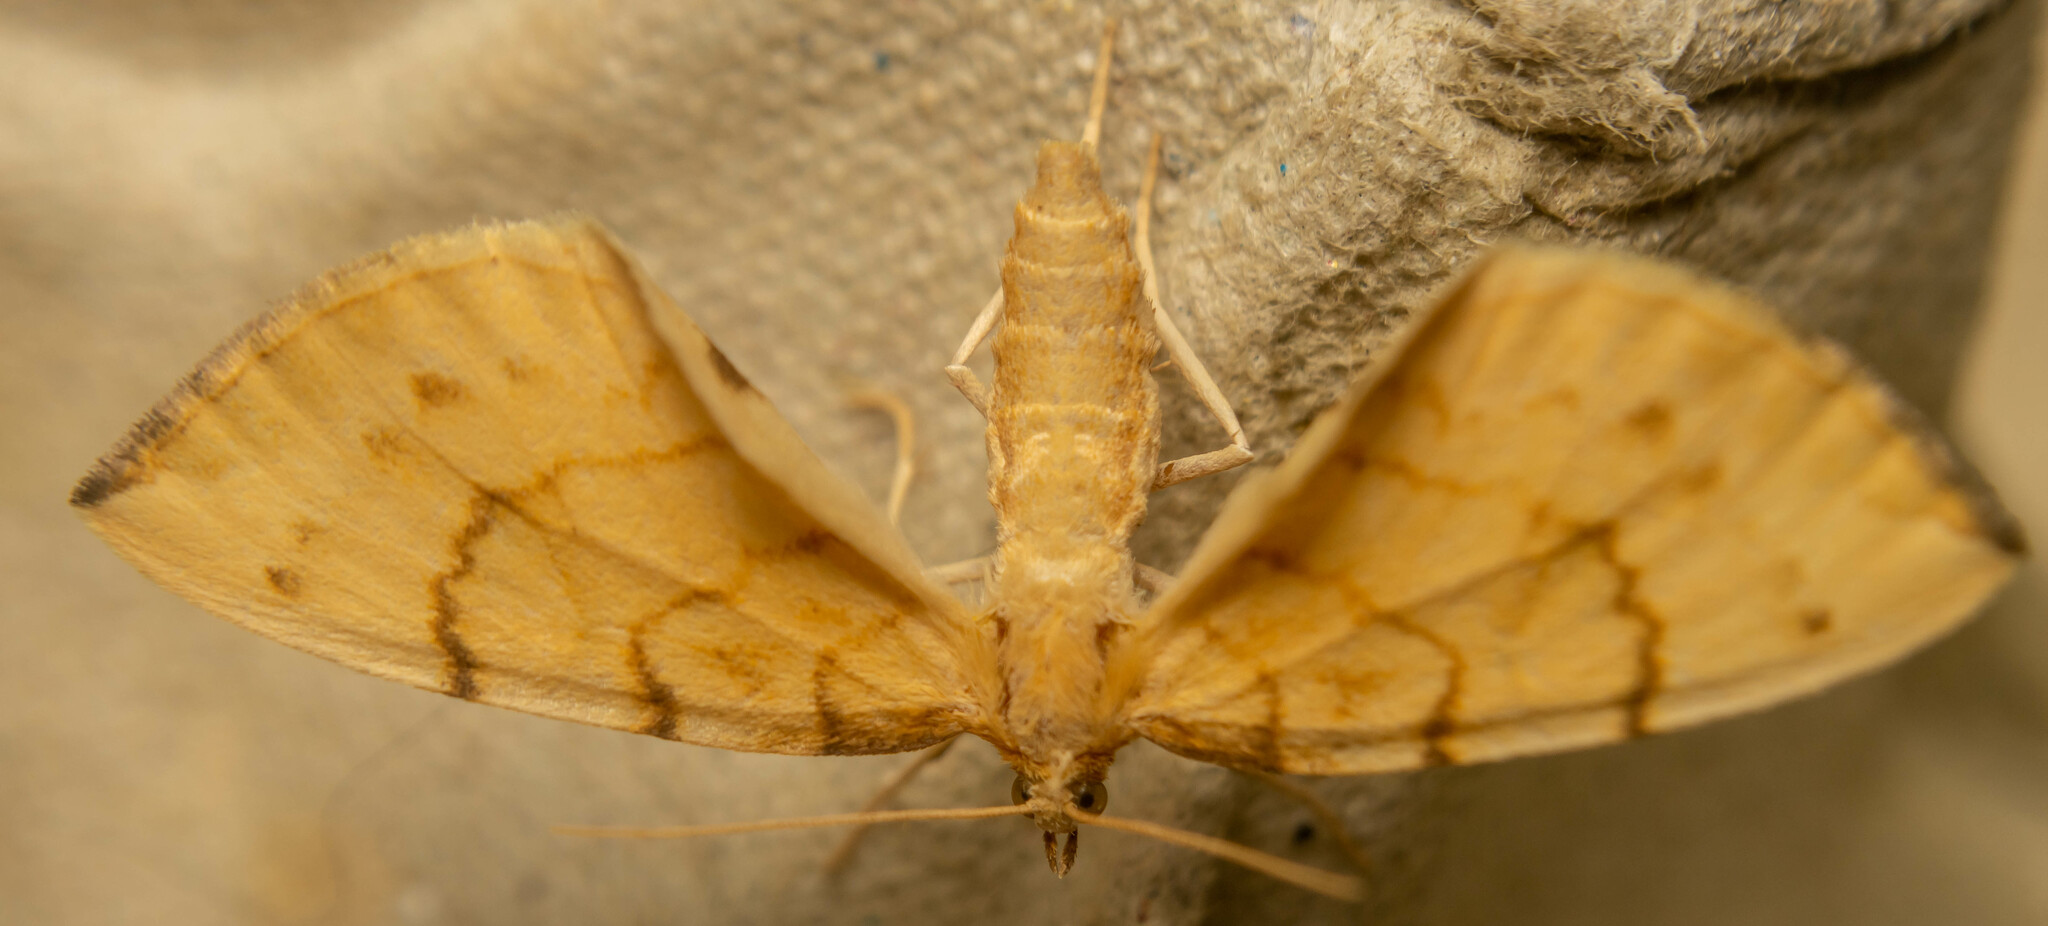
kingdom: Animalia
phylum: Arthropoda
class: Insecta
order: Lepidoptera
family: Geometridae
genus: Eulithis
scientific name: Eulithis pyraliata
